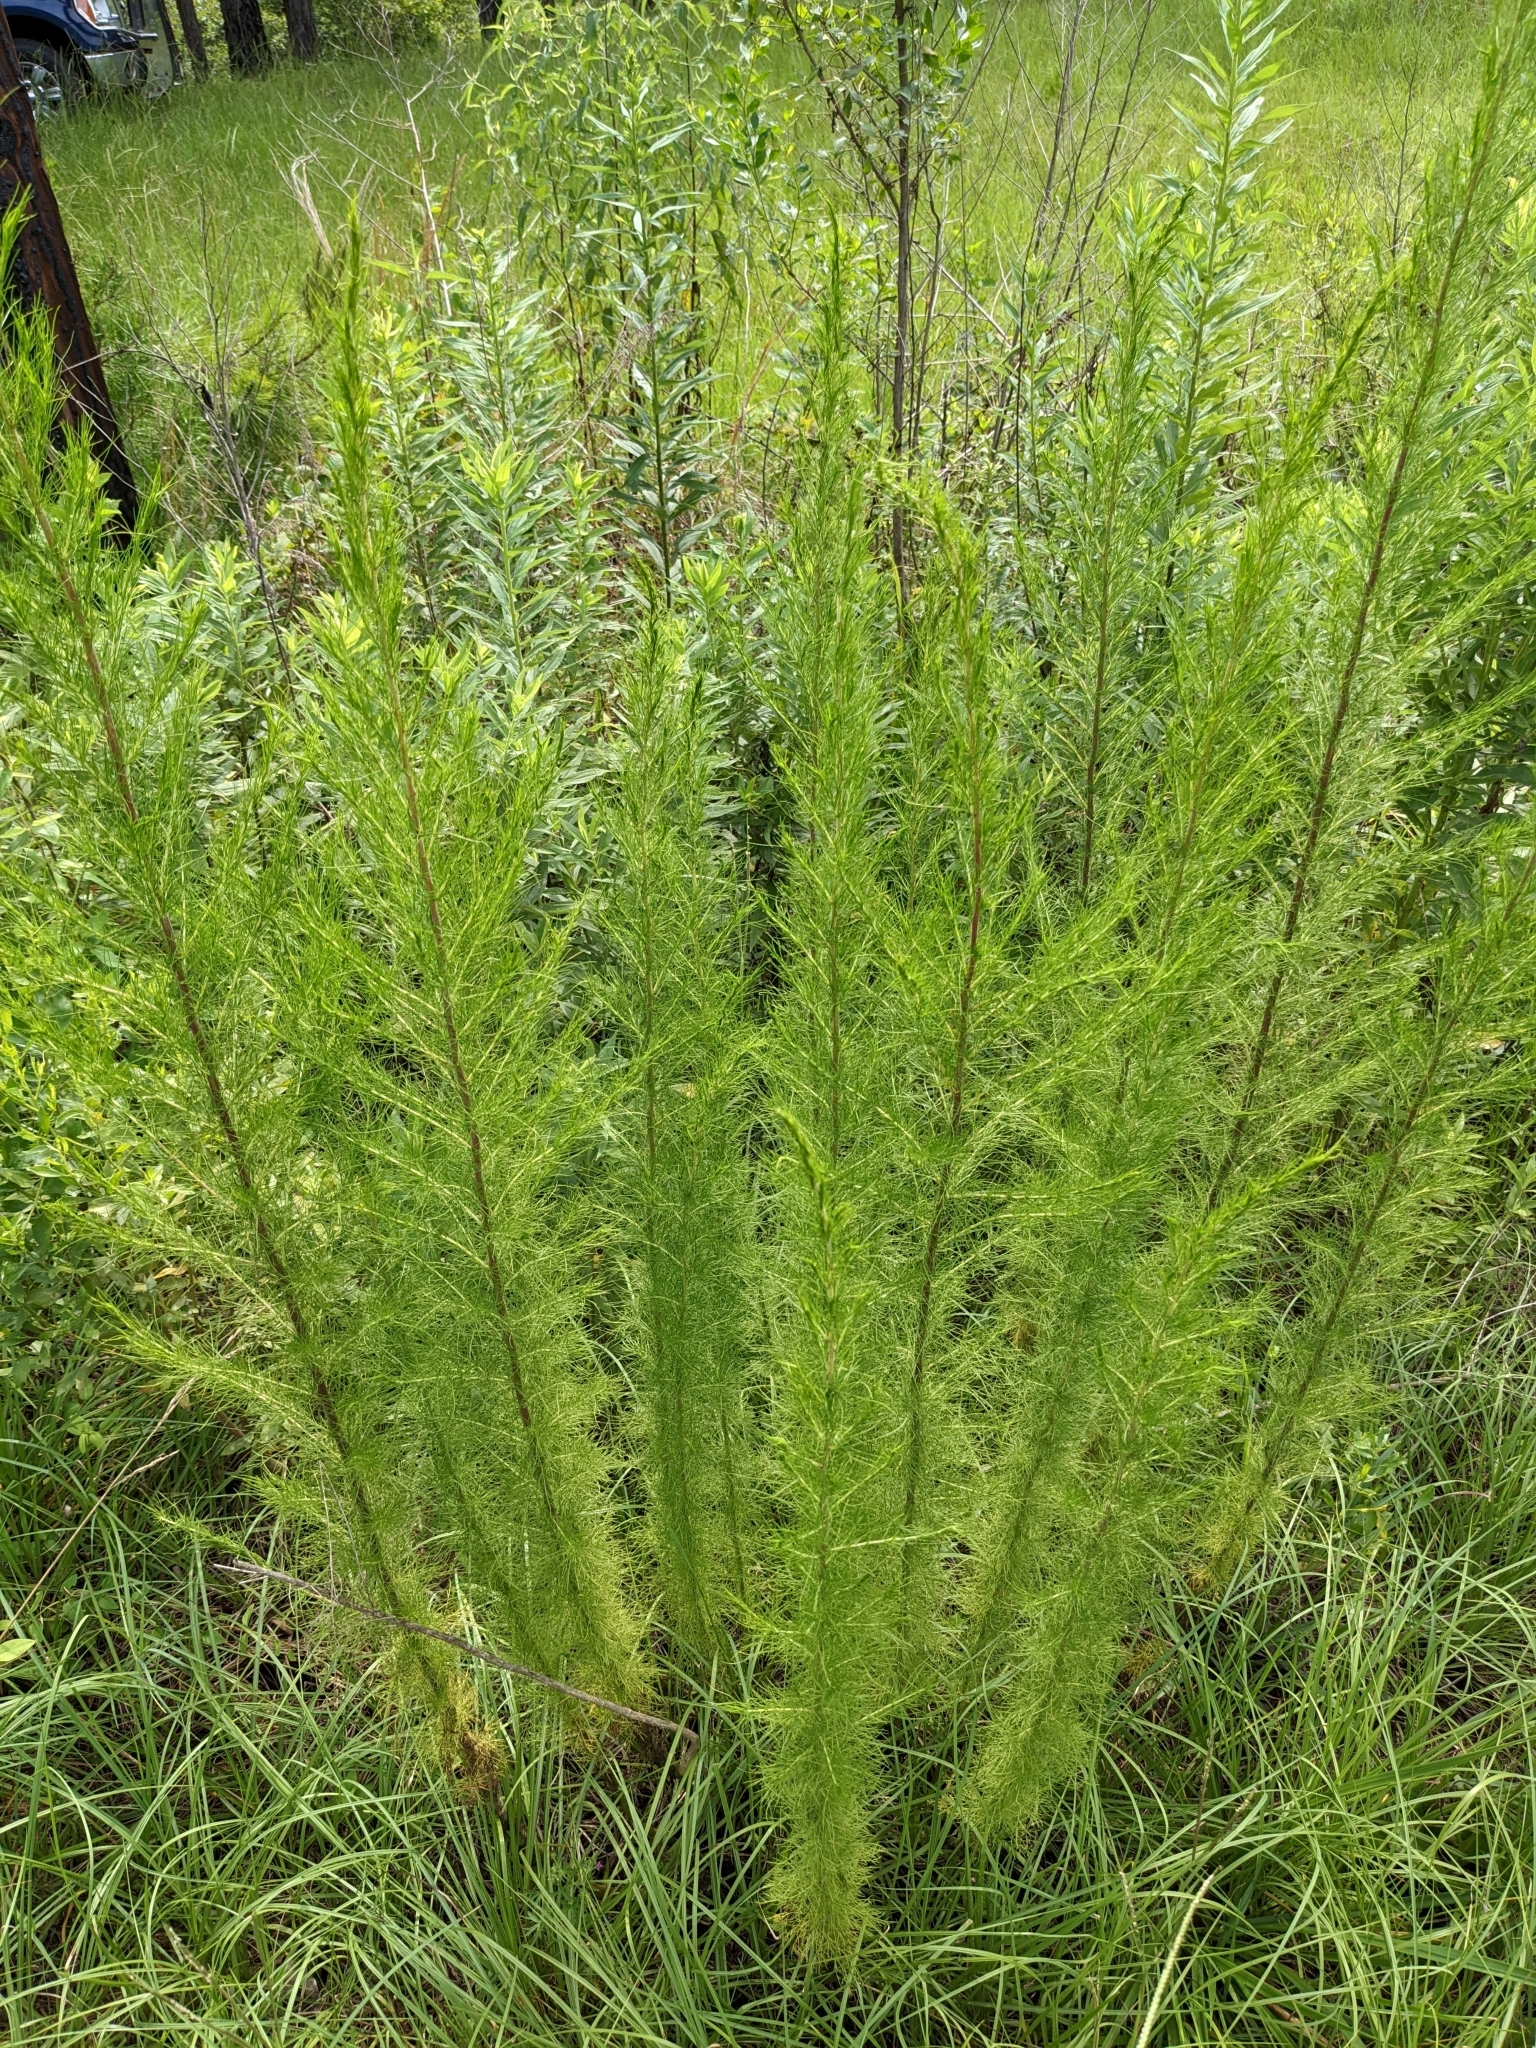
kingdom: Plantae
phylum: Tracheophyta
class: Magnoliopsida
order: Asterales
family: Asteraceae
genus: Eupatorium
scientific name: Eupatorium capillifolium
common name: Dog-fennel
